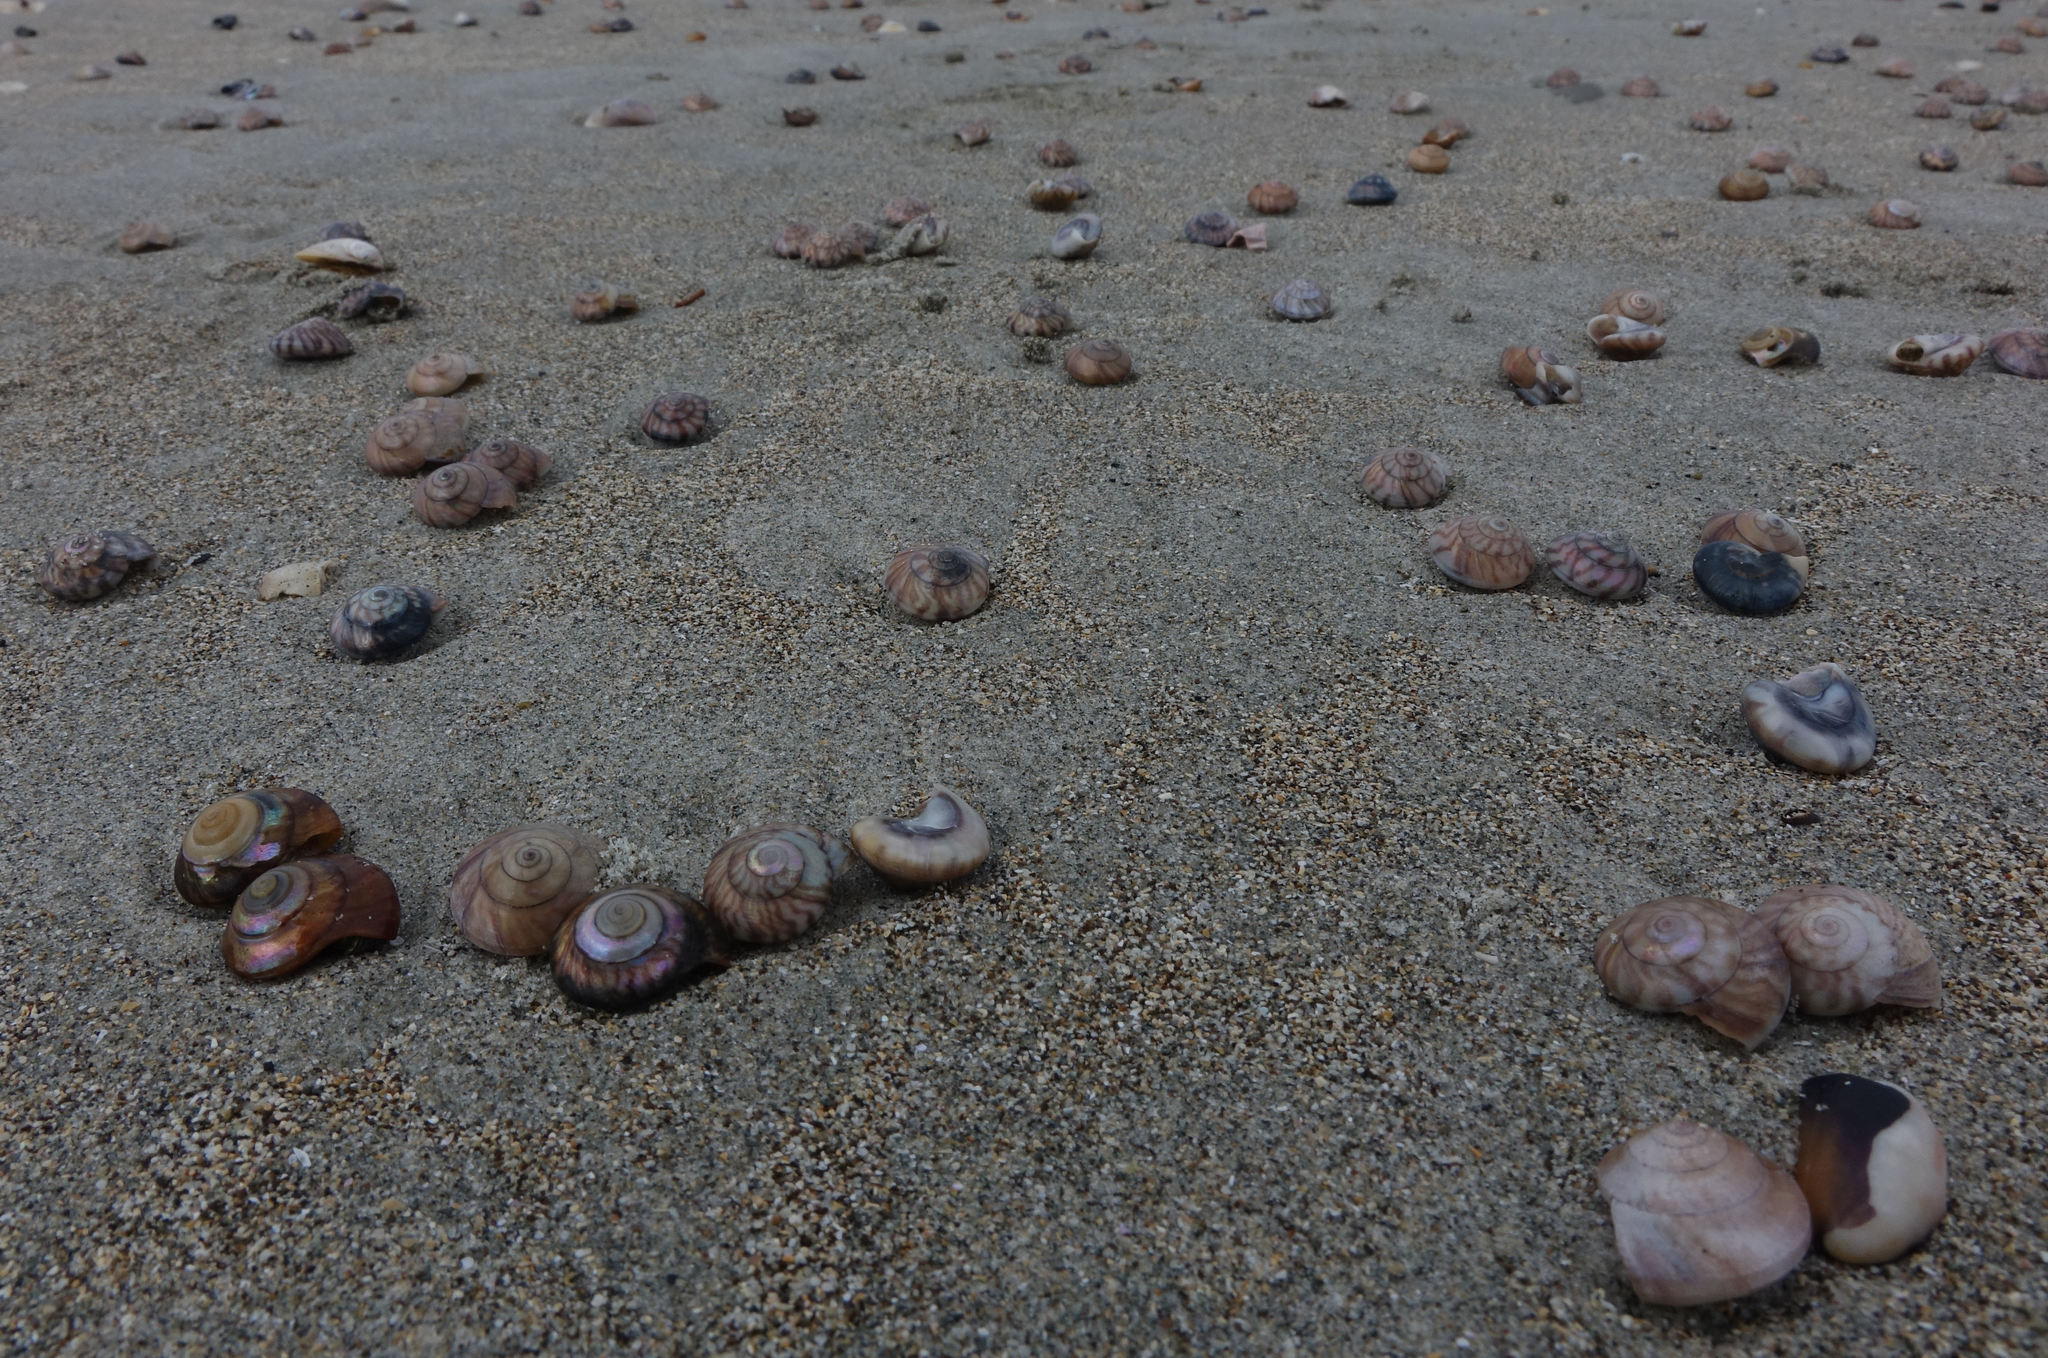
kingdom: Animalia
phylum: Mollusca
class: Gastropoda
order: Trochida
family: Trochidae
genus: Zethalia
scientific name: Zethalia zelandica
